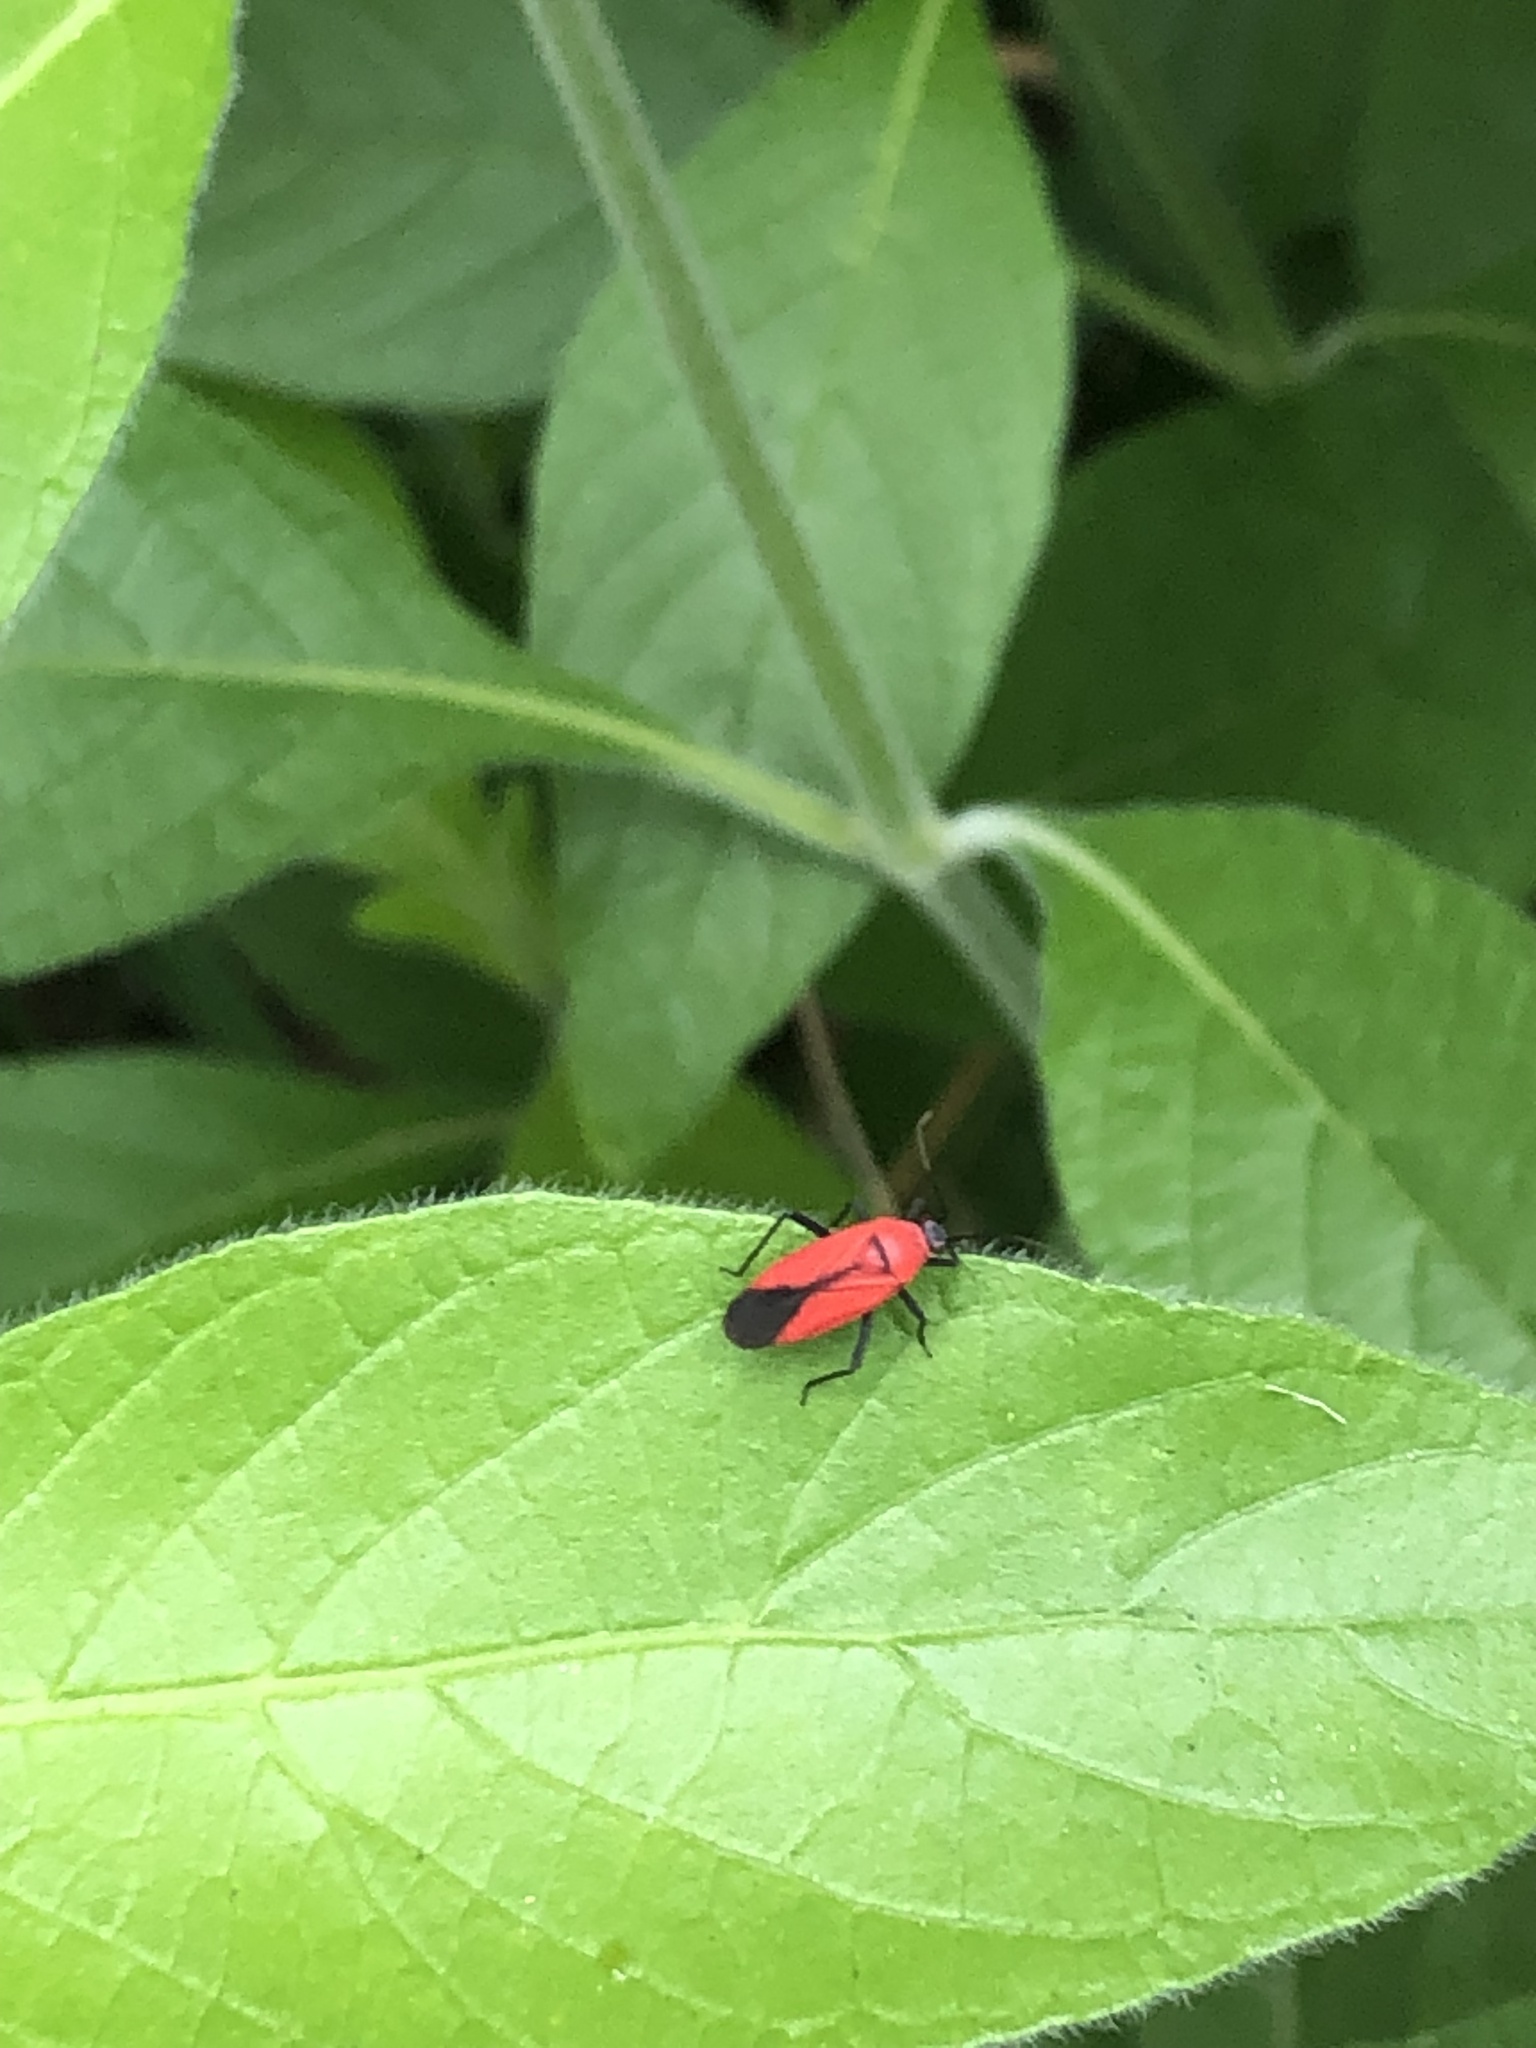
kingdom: Animalia
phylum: Arthropoda
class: Insecta
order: Hemiptera
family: Miridae
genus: Lopidea
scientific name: Lopidea major
